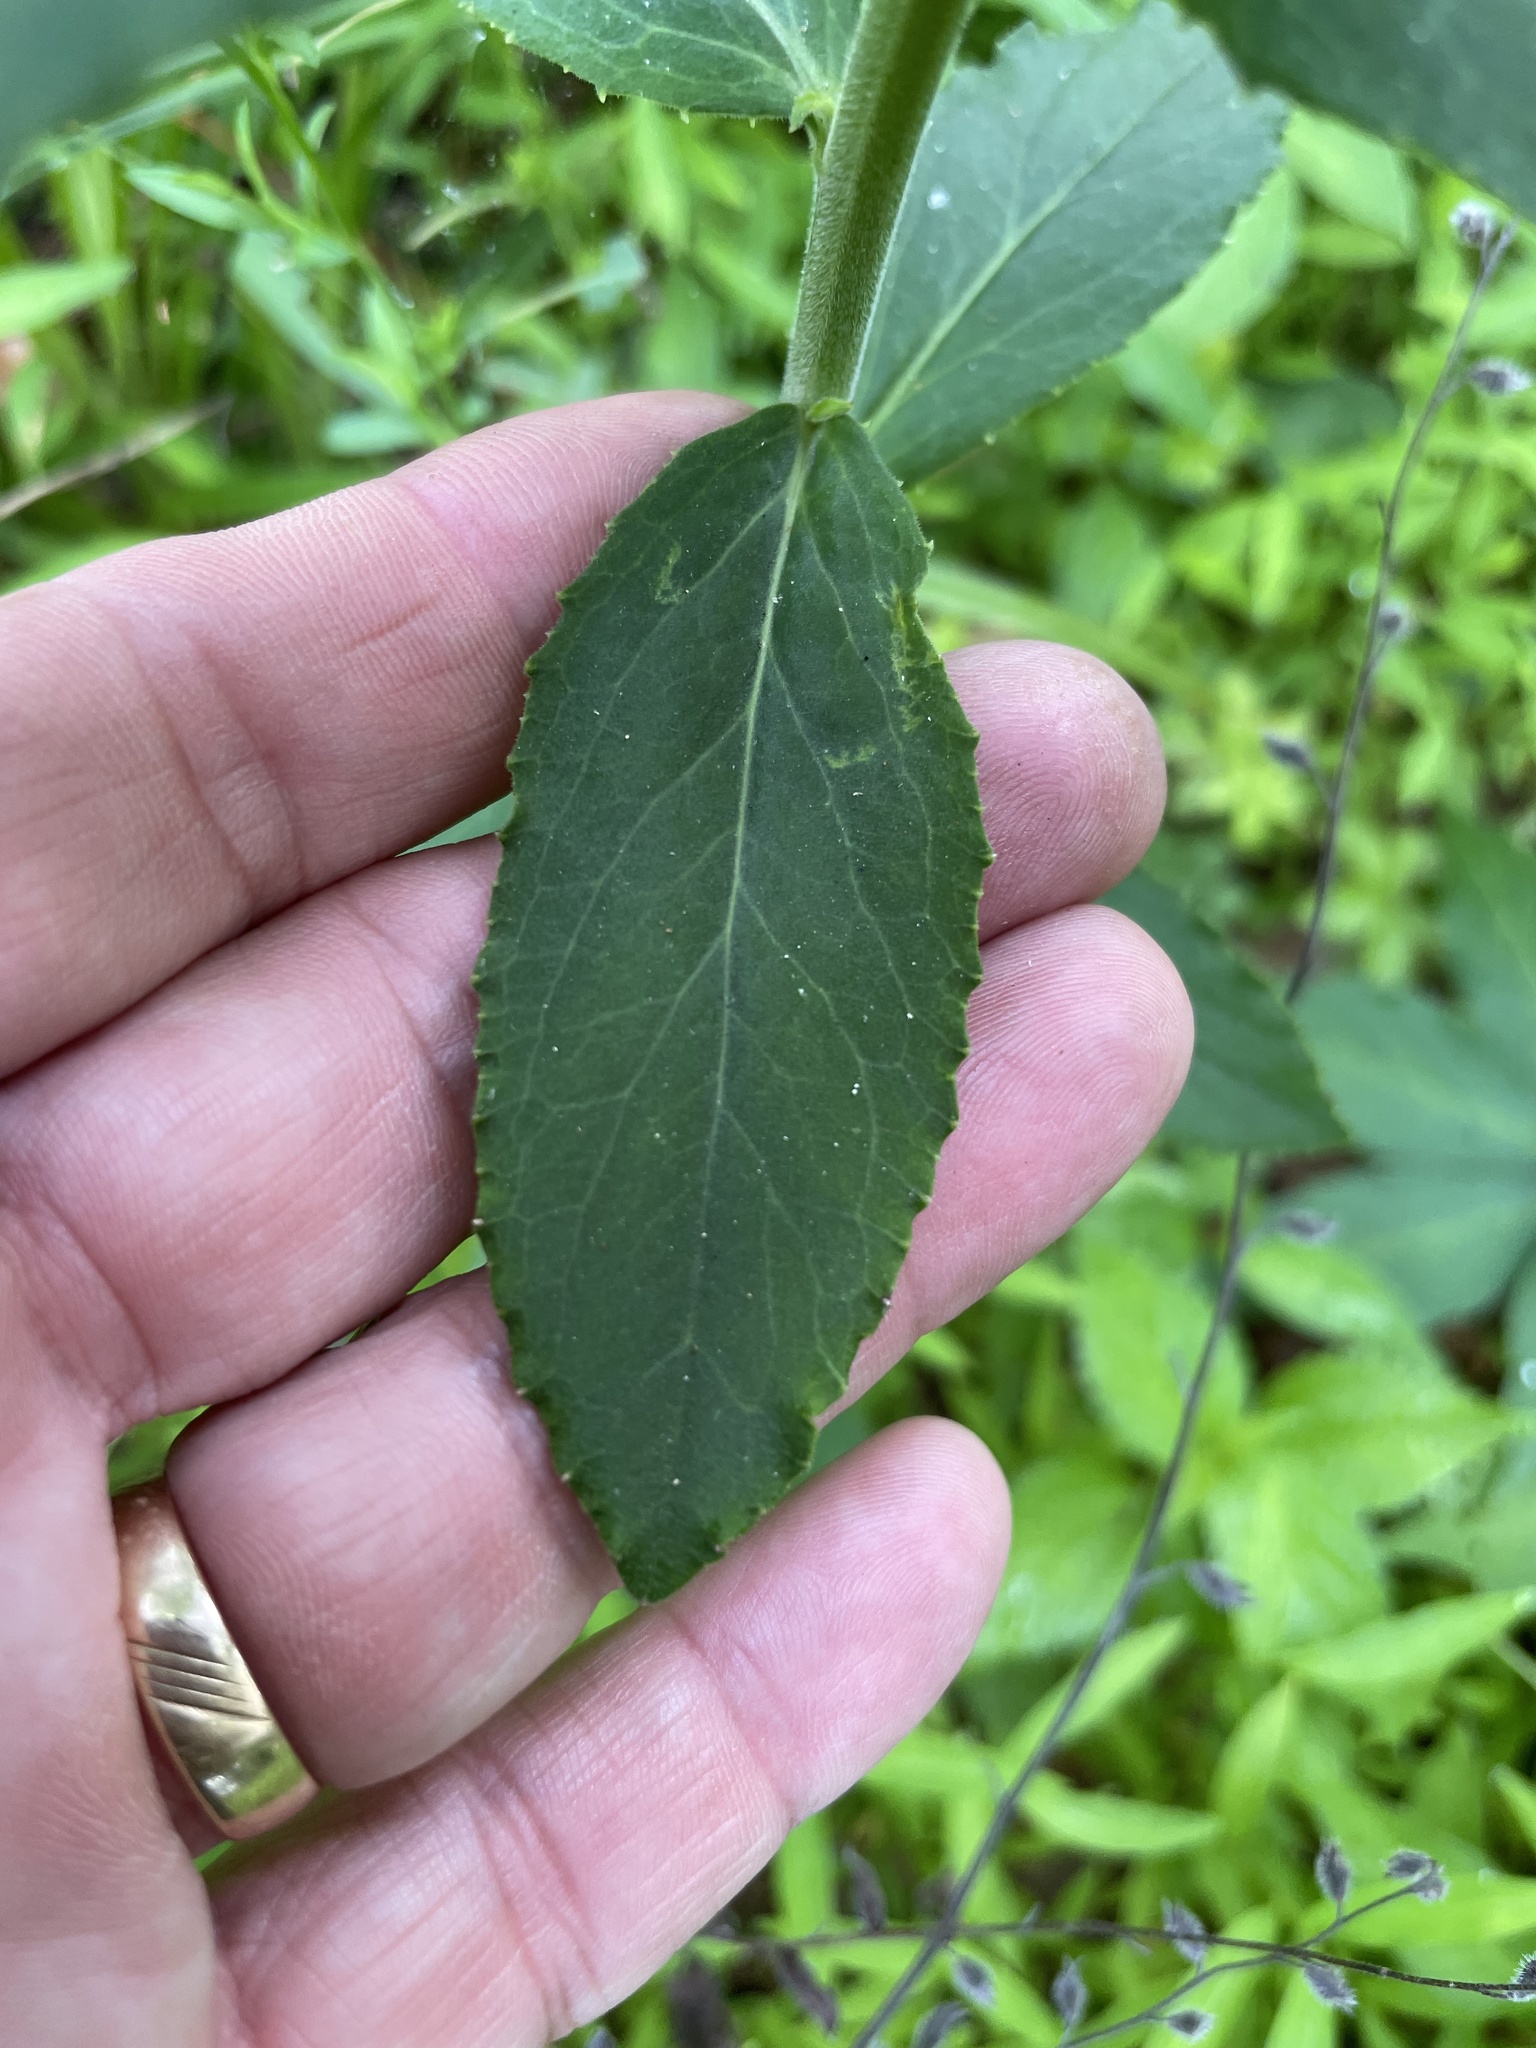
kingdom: Plantae
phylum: Tracheophyta
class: Magnoliopsida
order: Asterales
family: Campanulaceae
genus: Lobelia
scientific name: Lobelia puberula
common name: Purple dewdrop
